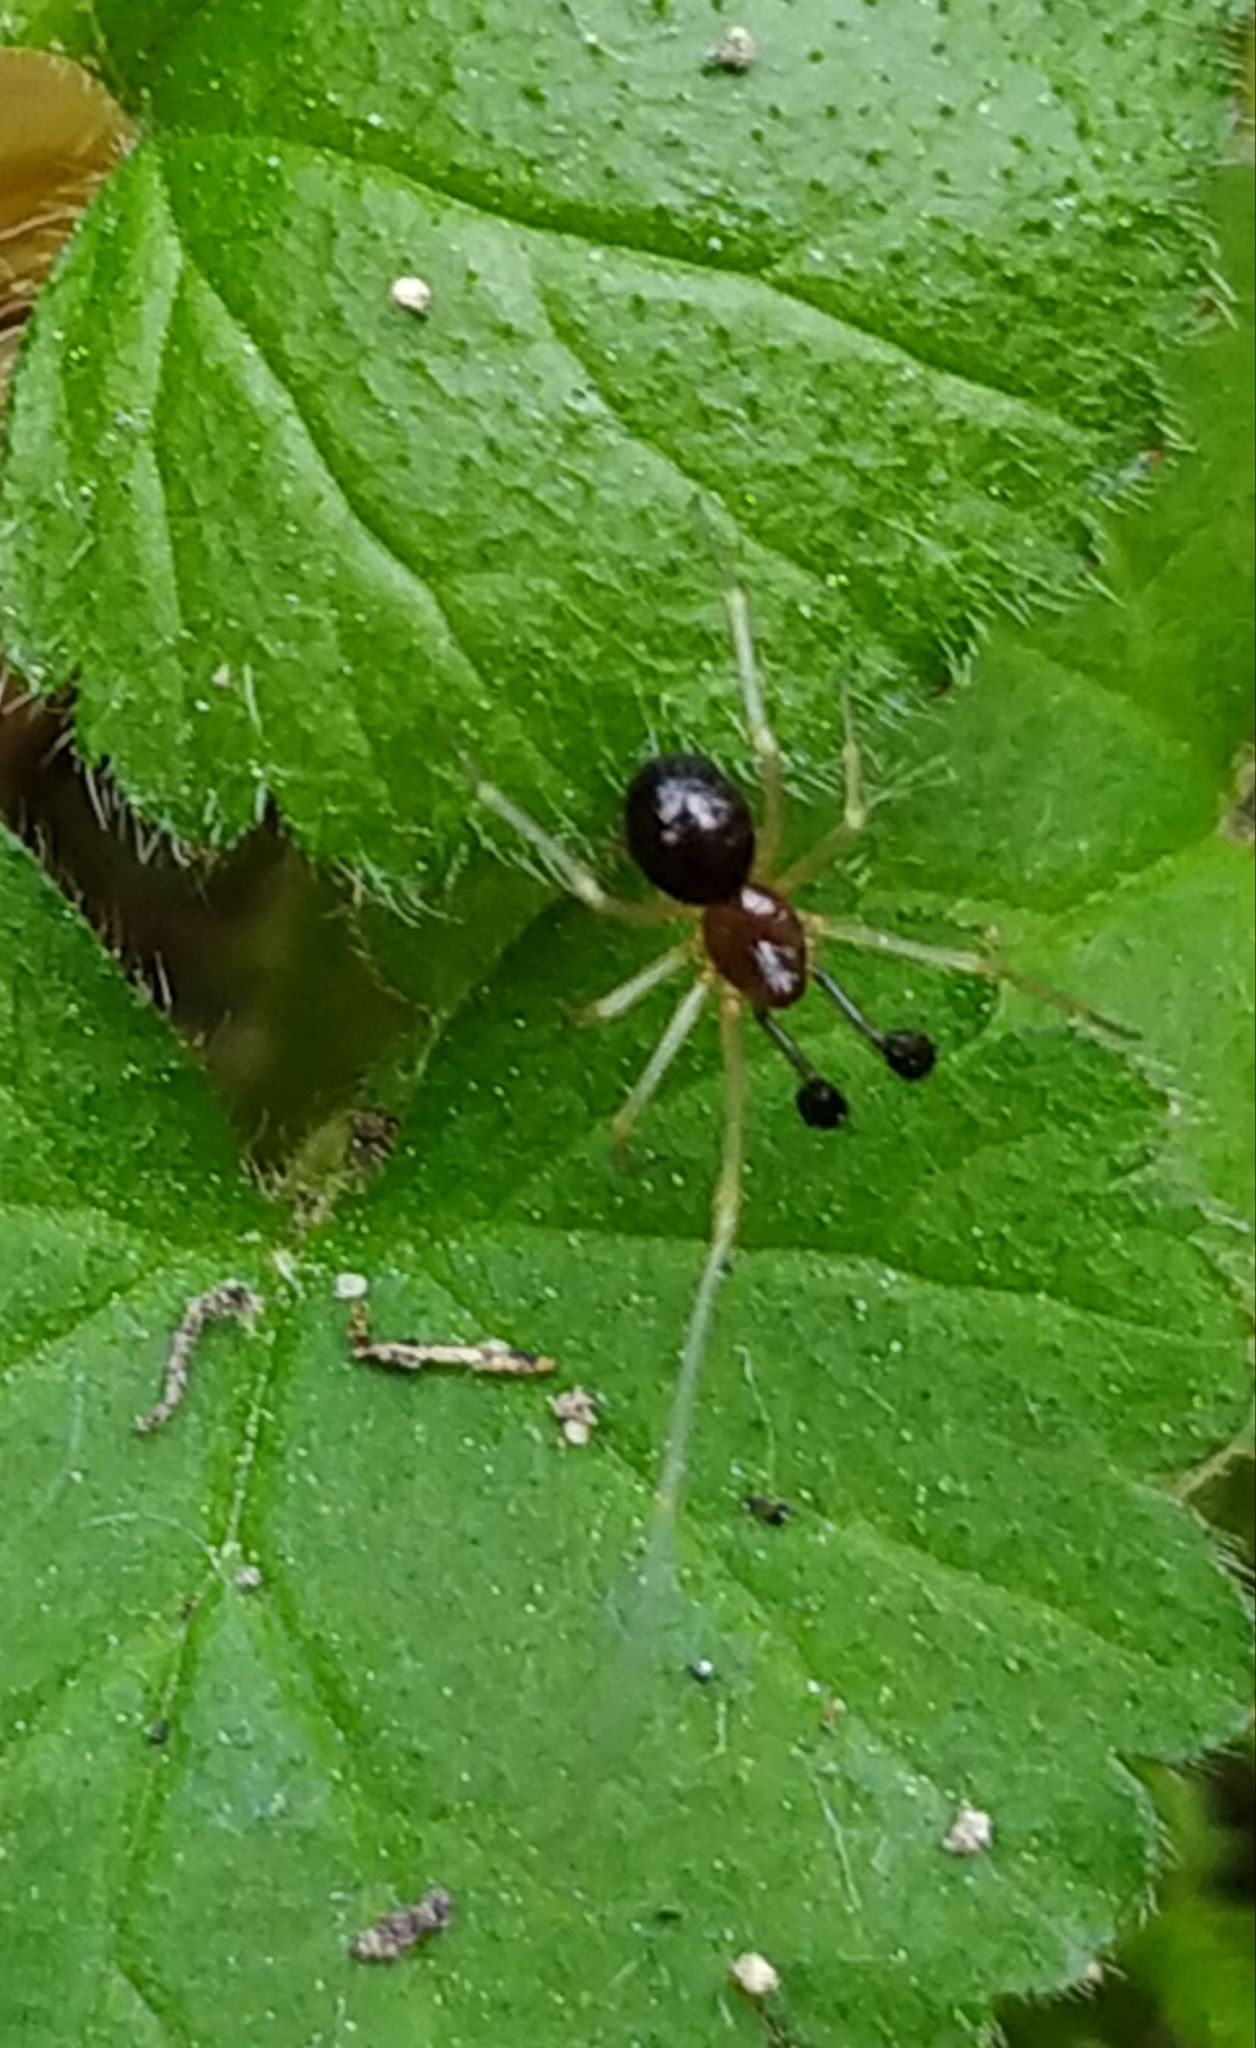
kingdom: Animalia
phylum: Arthropoda
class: Arachnida
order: Araneae
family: Theridiidae
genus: Neottiura
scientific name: Neottiura bimaculata
